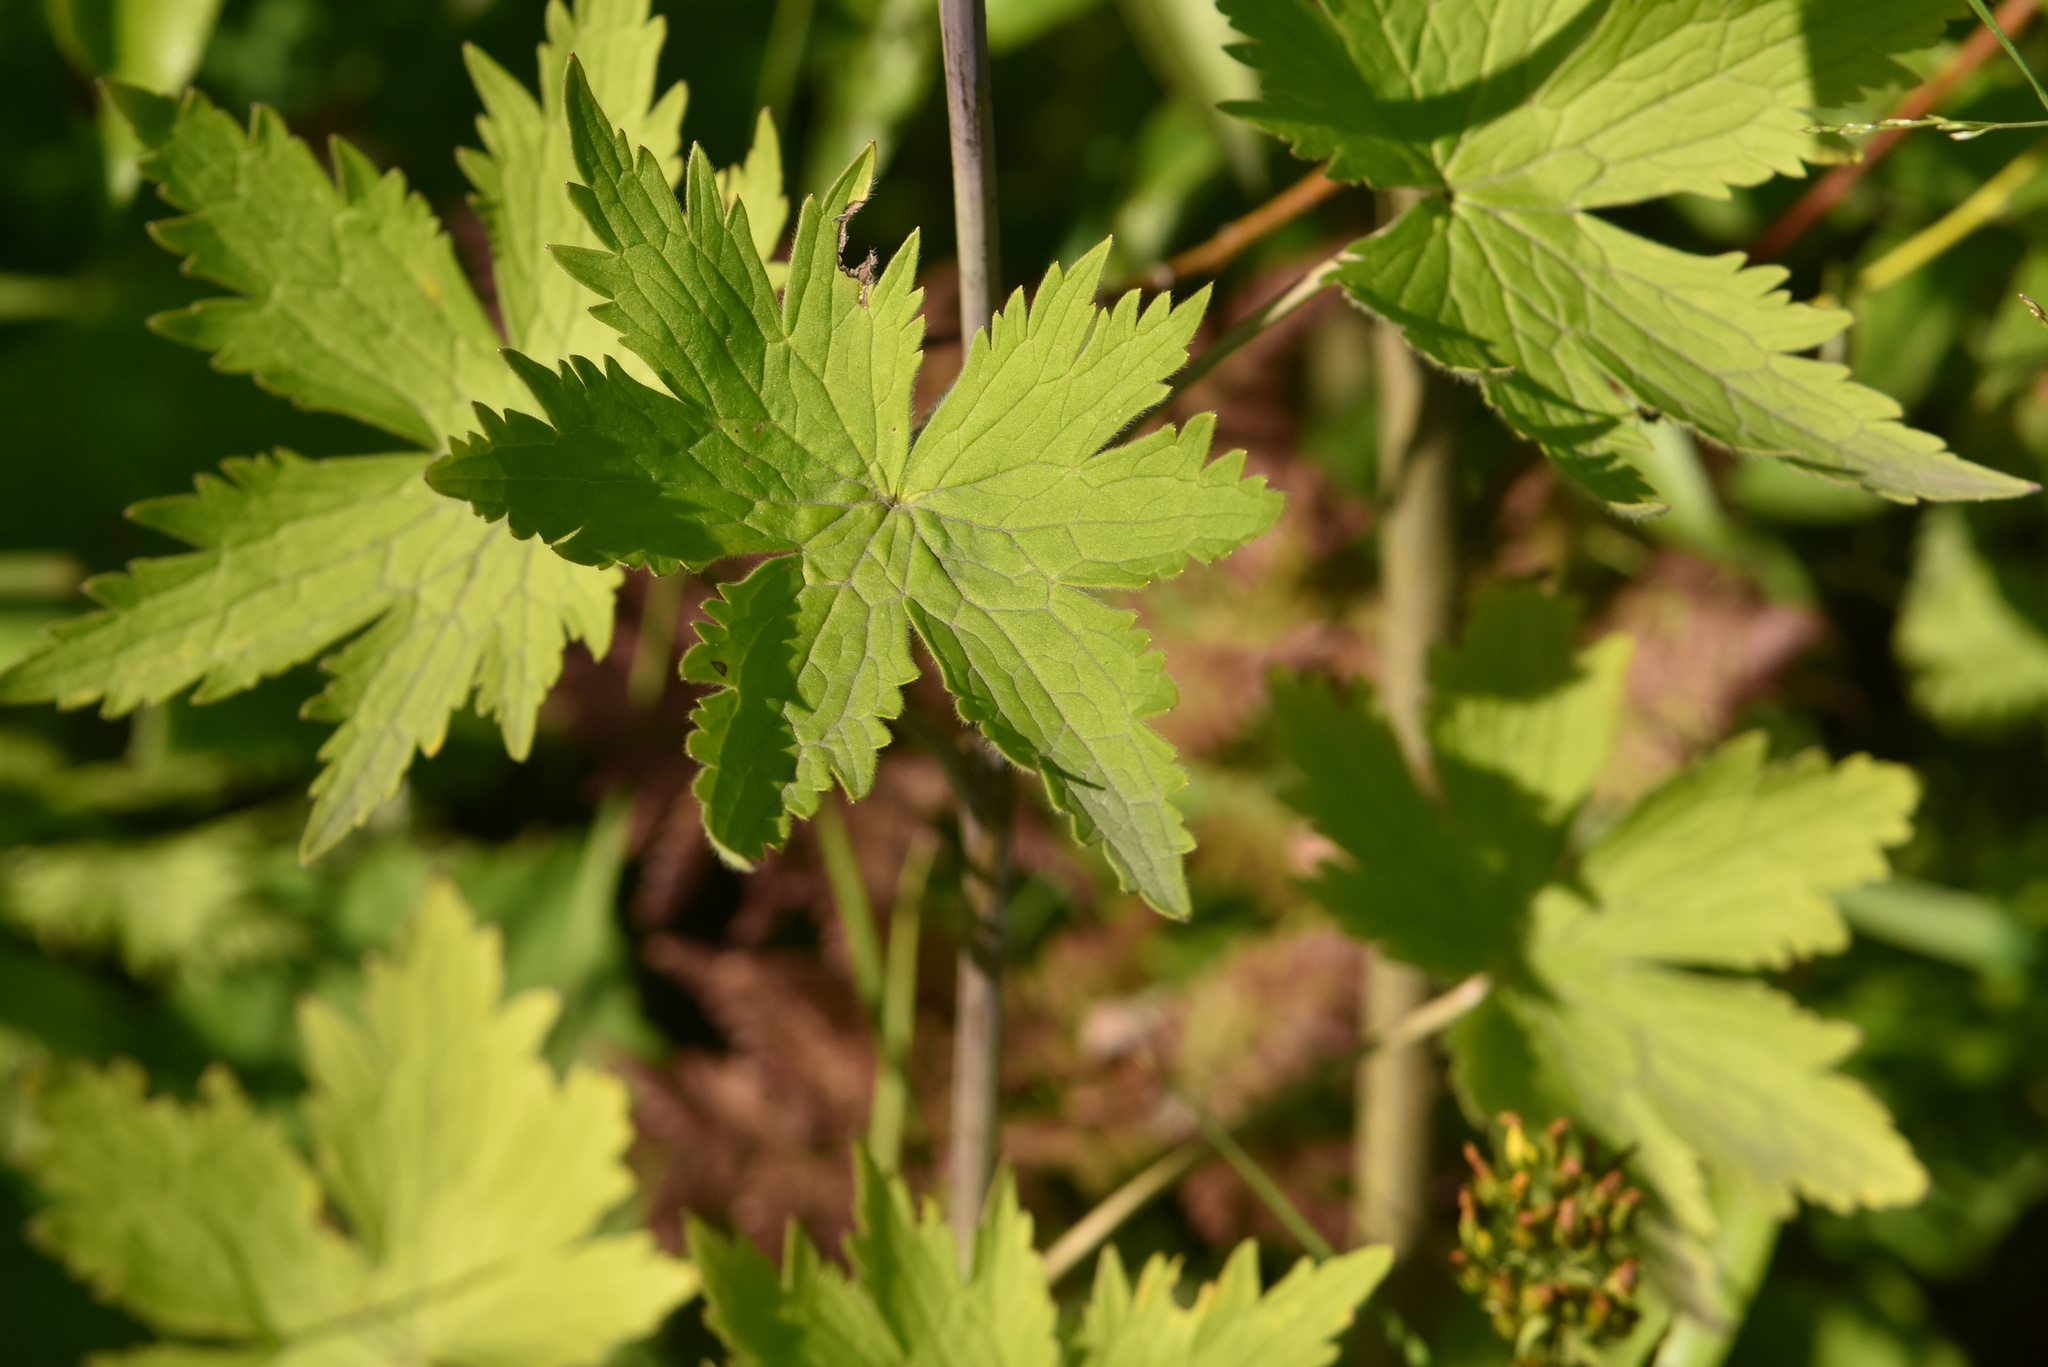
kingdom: Plantae
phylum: Tracheophyta
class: Magnoliopsida
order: Ranunculales
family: Ranunculaceae
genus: Delphinium
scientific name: Delphinium elatum
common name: Candle larkspur
